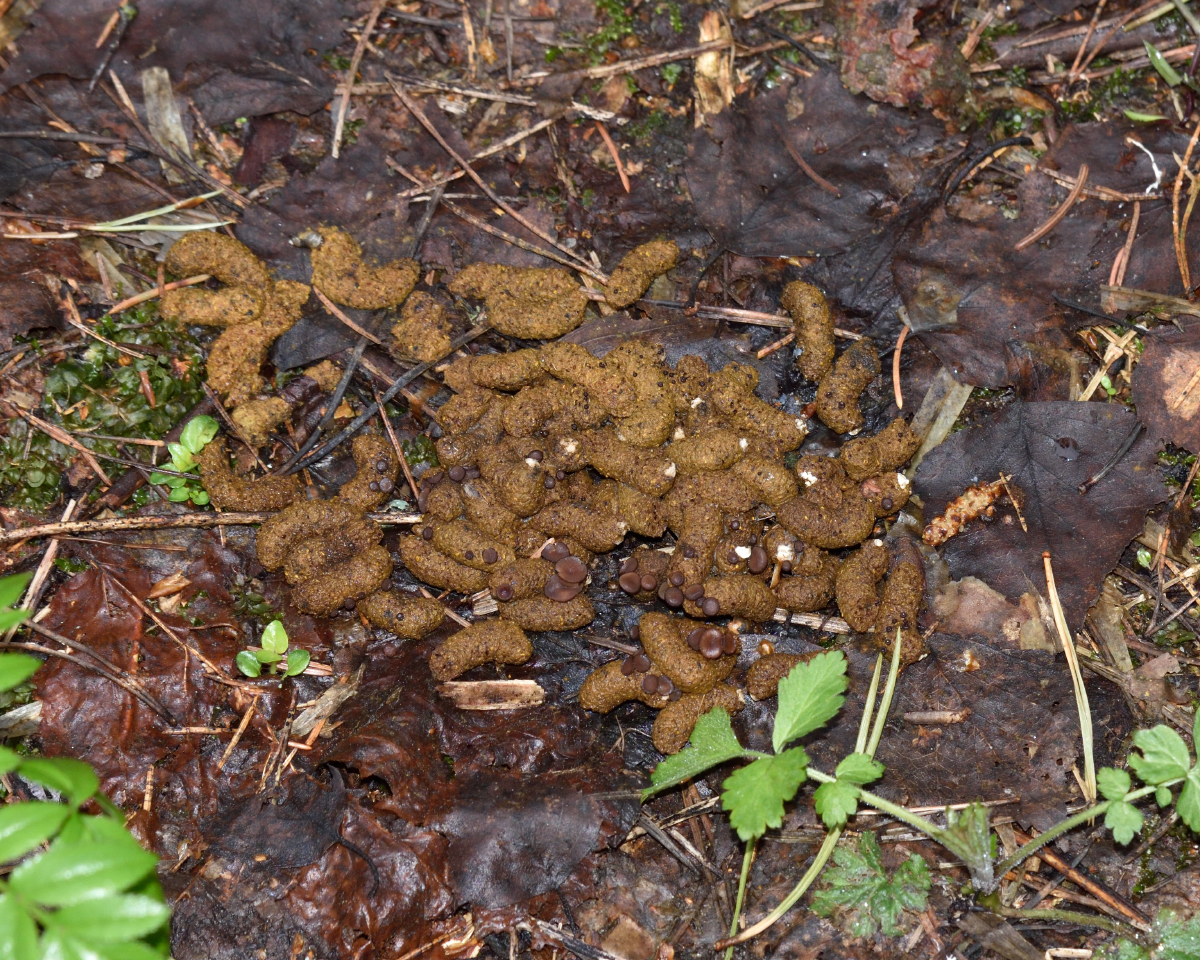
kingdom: Animalia
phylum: Chordata
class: Aves
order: Galliformes
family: Phasianidae
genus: Tetrastes
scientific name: Tetrastes bonasia
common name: Hazel grouse
